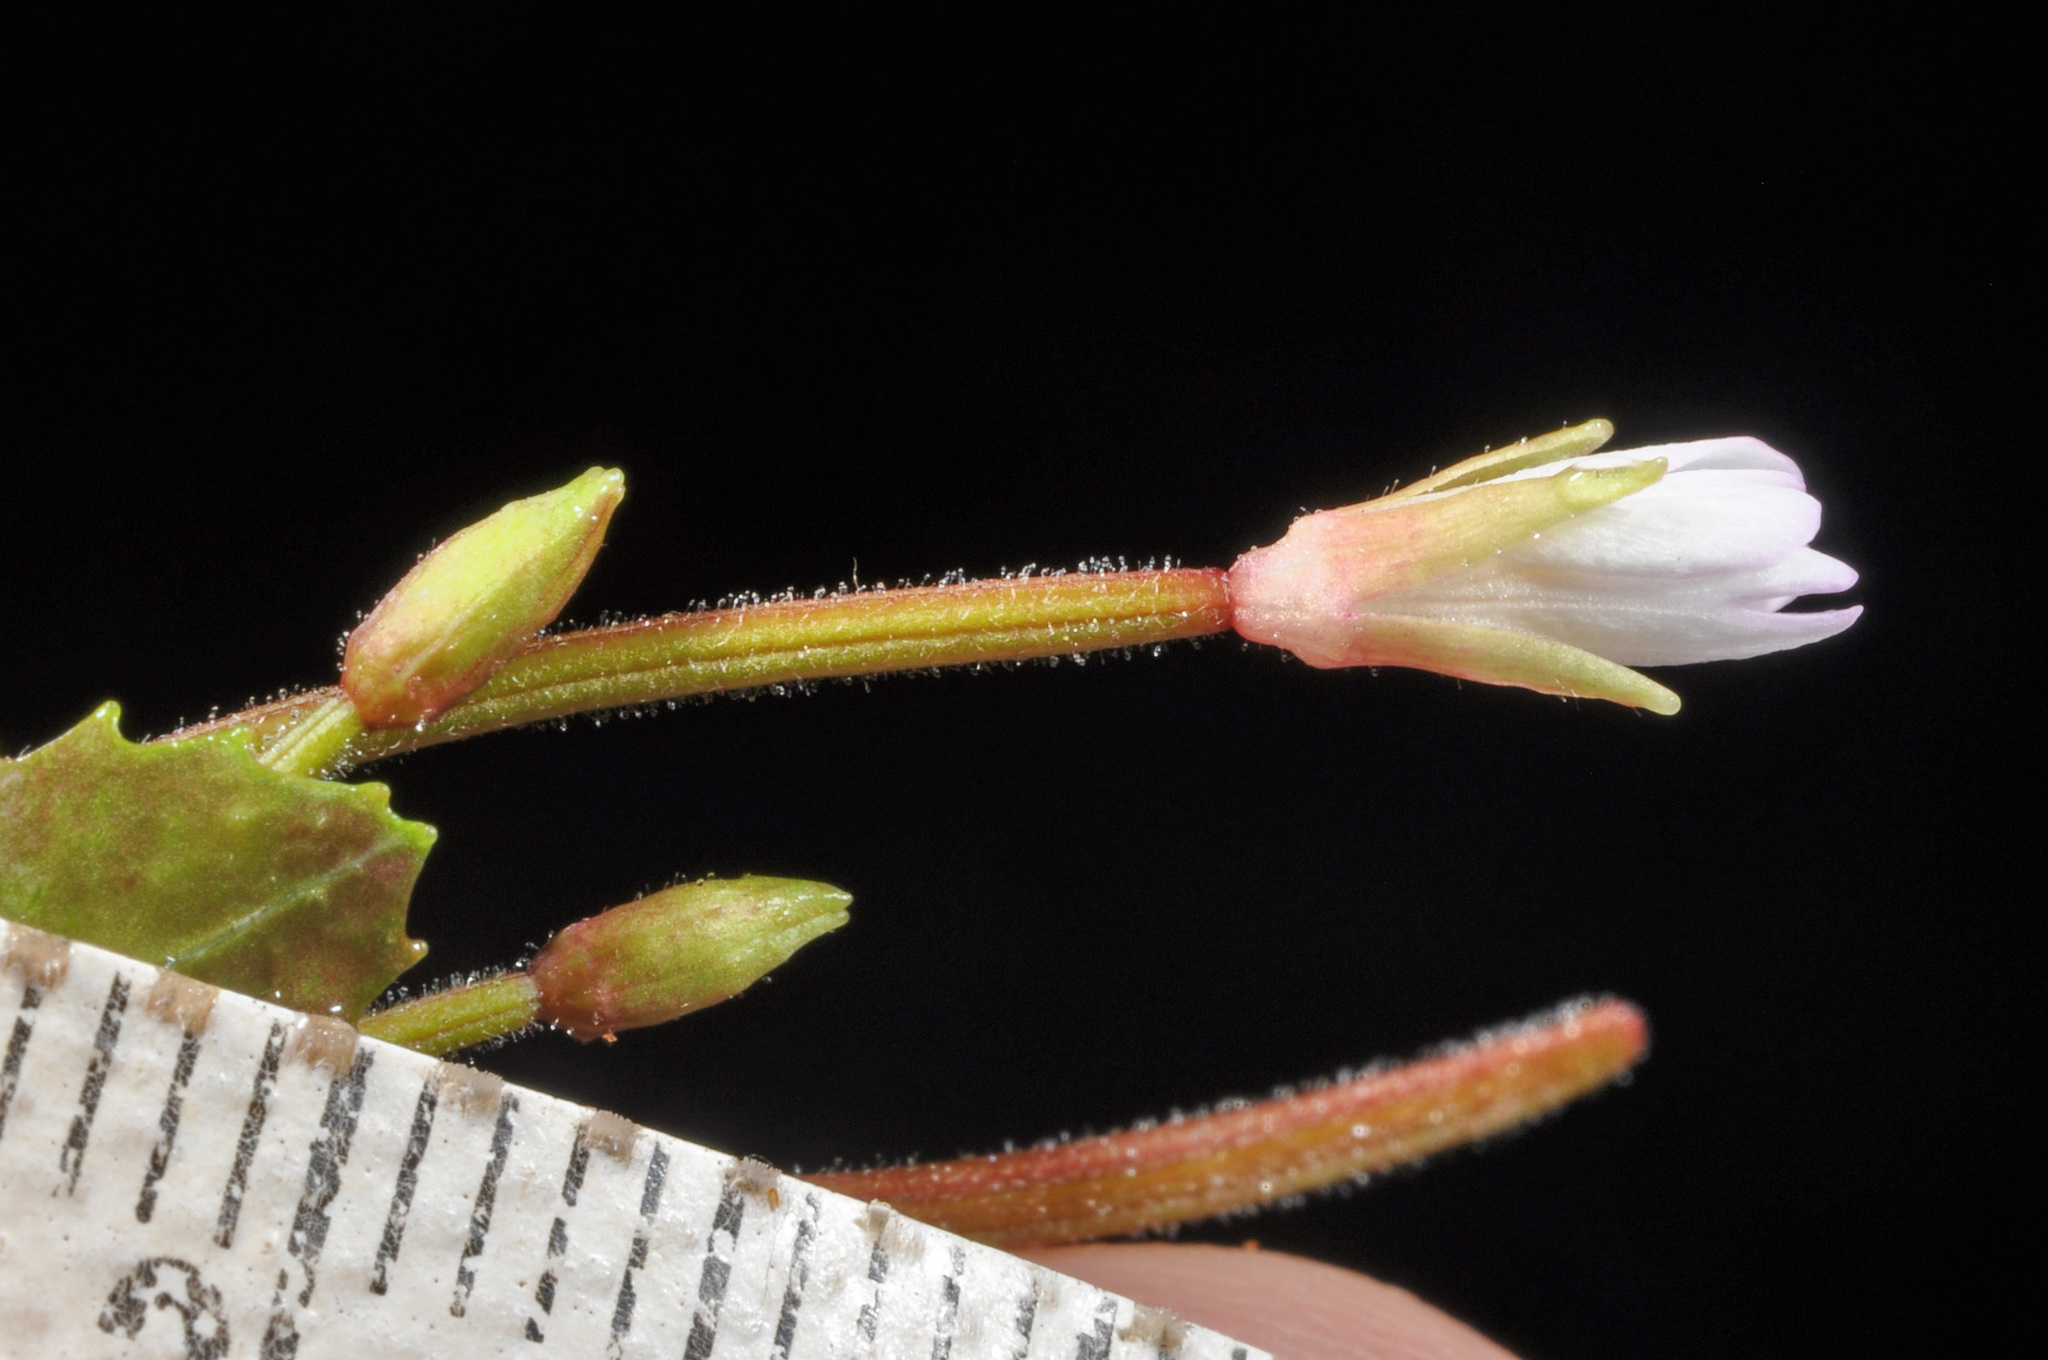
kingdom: Plantae
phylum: Tracheophyta
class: Magnoliopsida
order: Myrtales
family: Onagraceae
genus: Epilobium
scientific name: Epilobium rotundifolium
